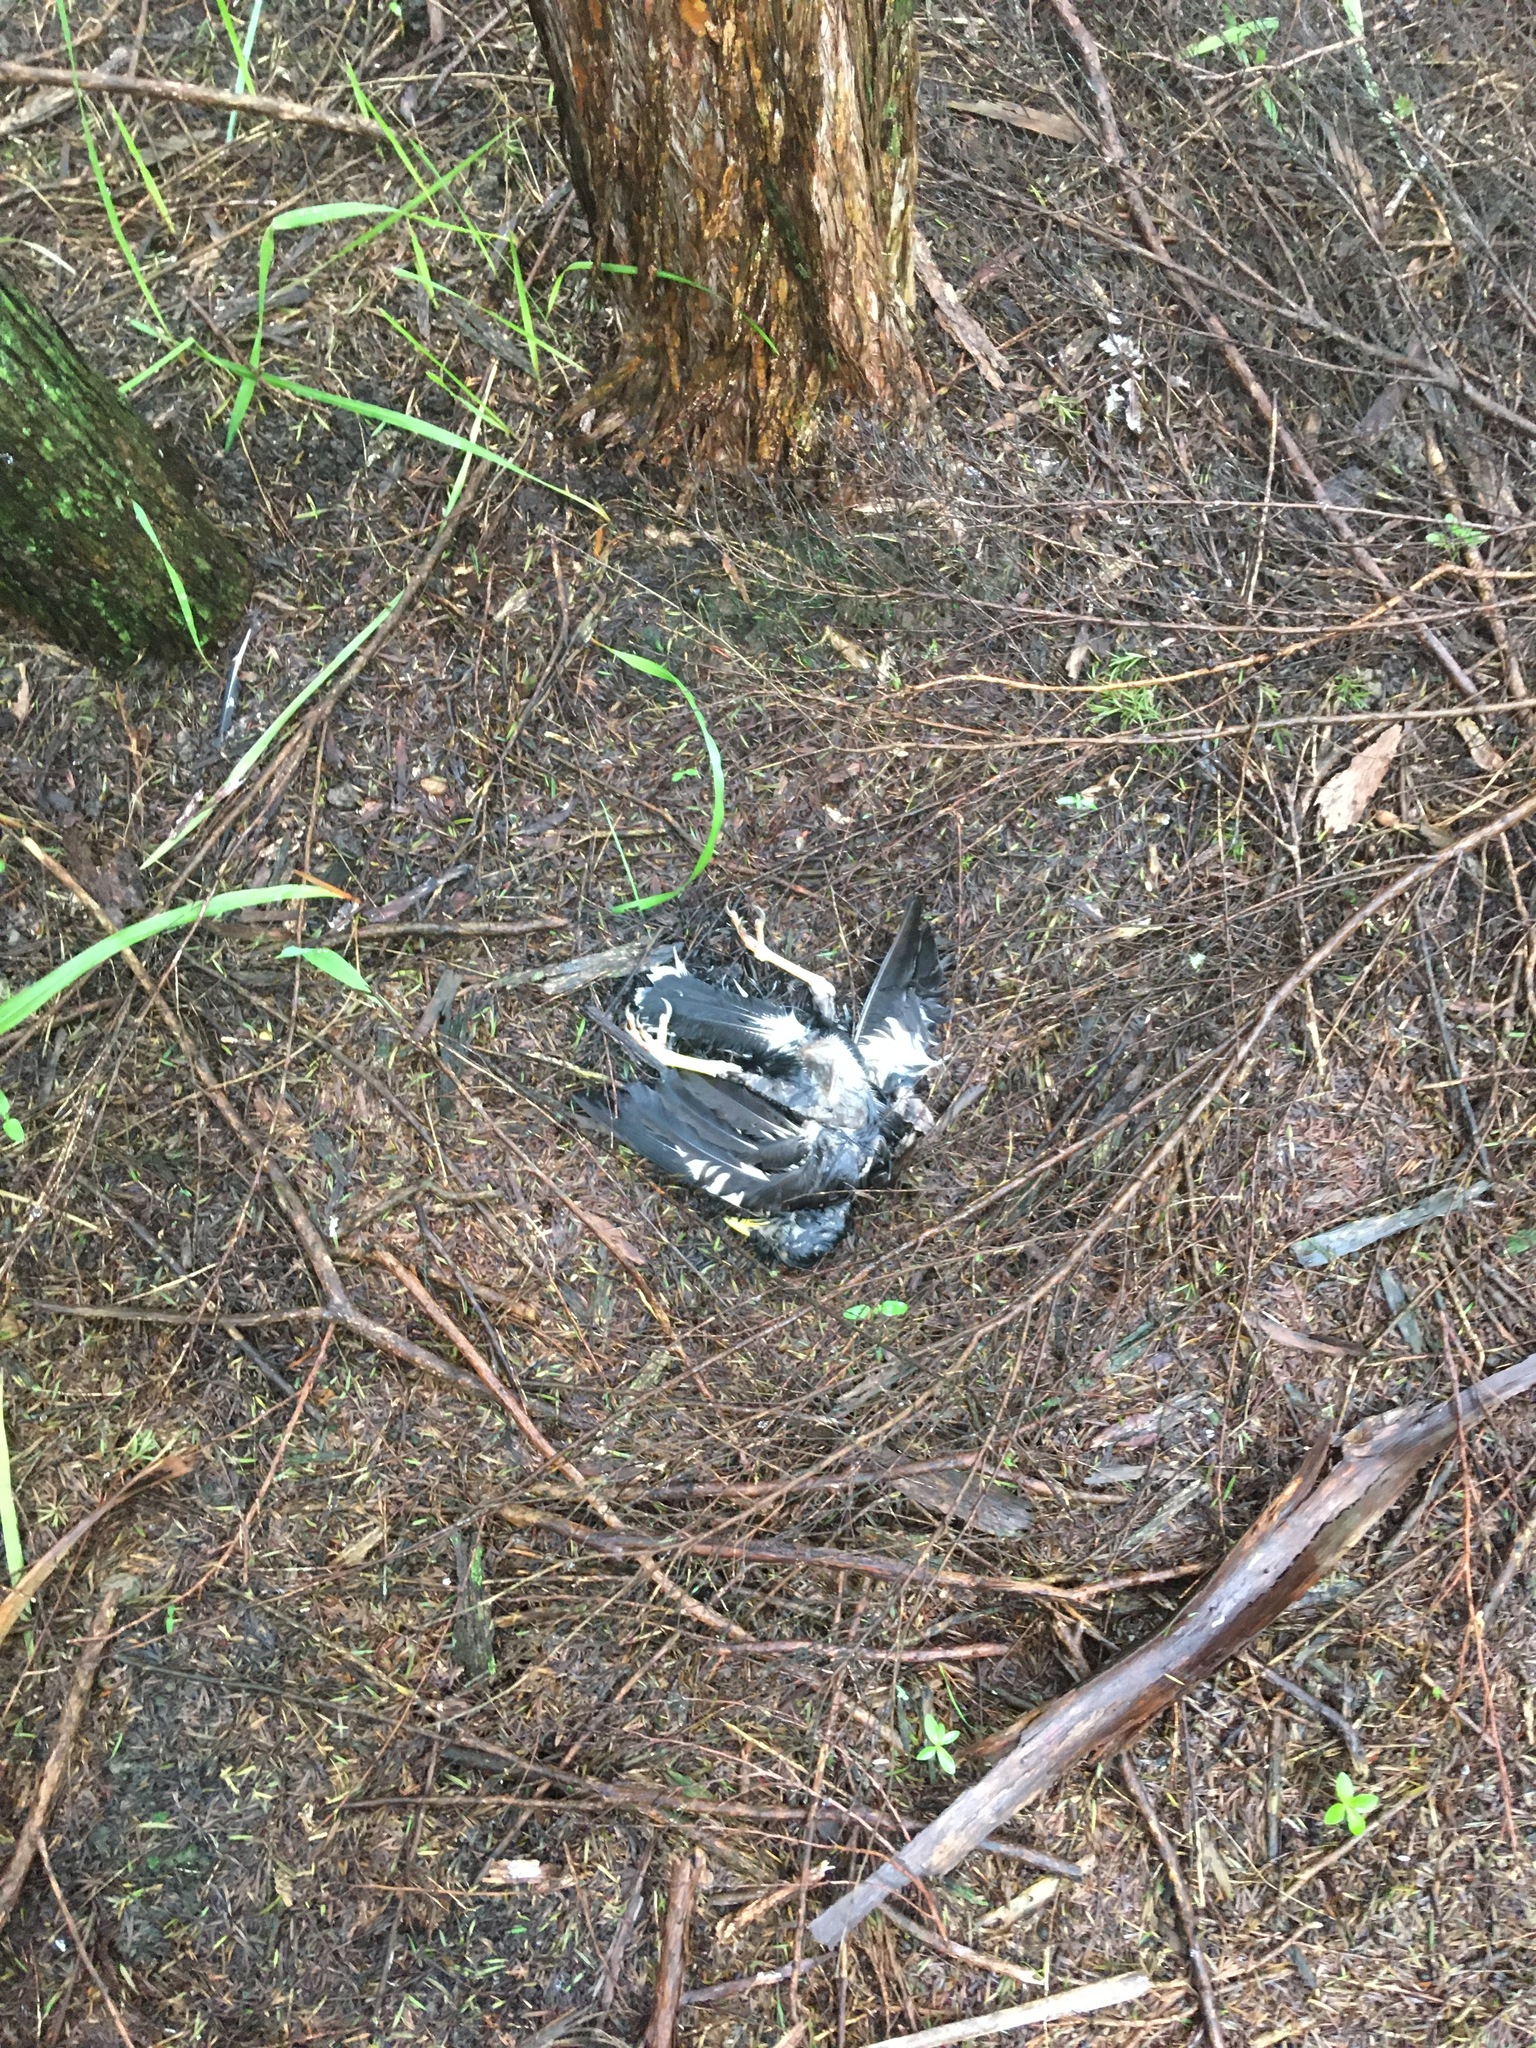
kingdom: Animalia
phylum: Chordata
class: Aves
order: Passeriformes
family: Sturnidae
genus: Acridotheres
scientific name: Acridotheres tristis
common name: Common myna
